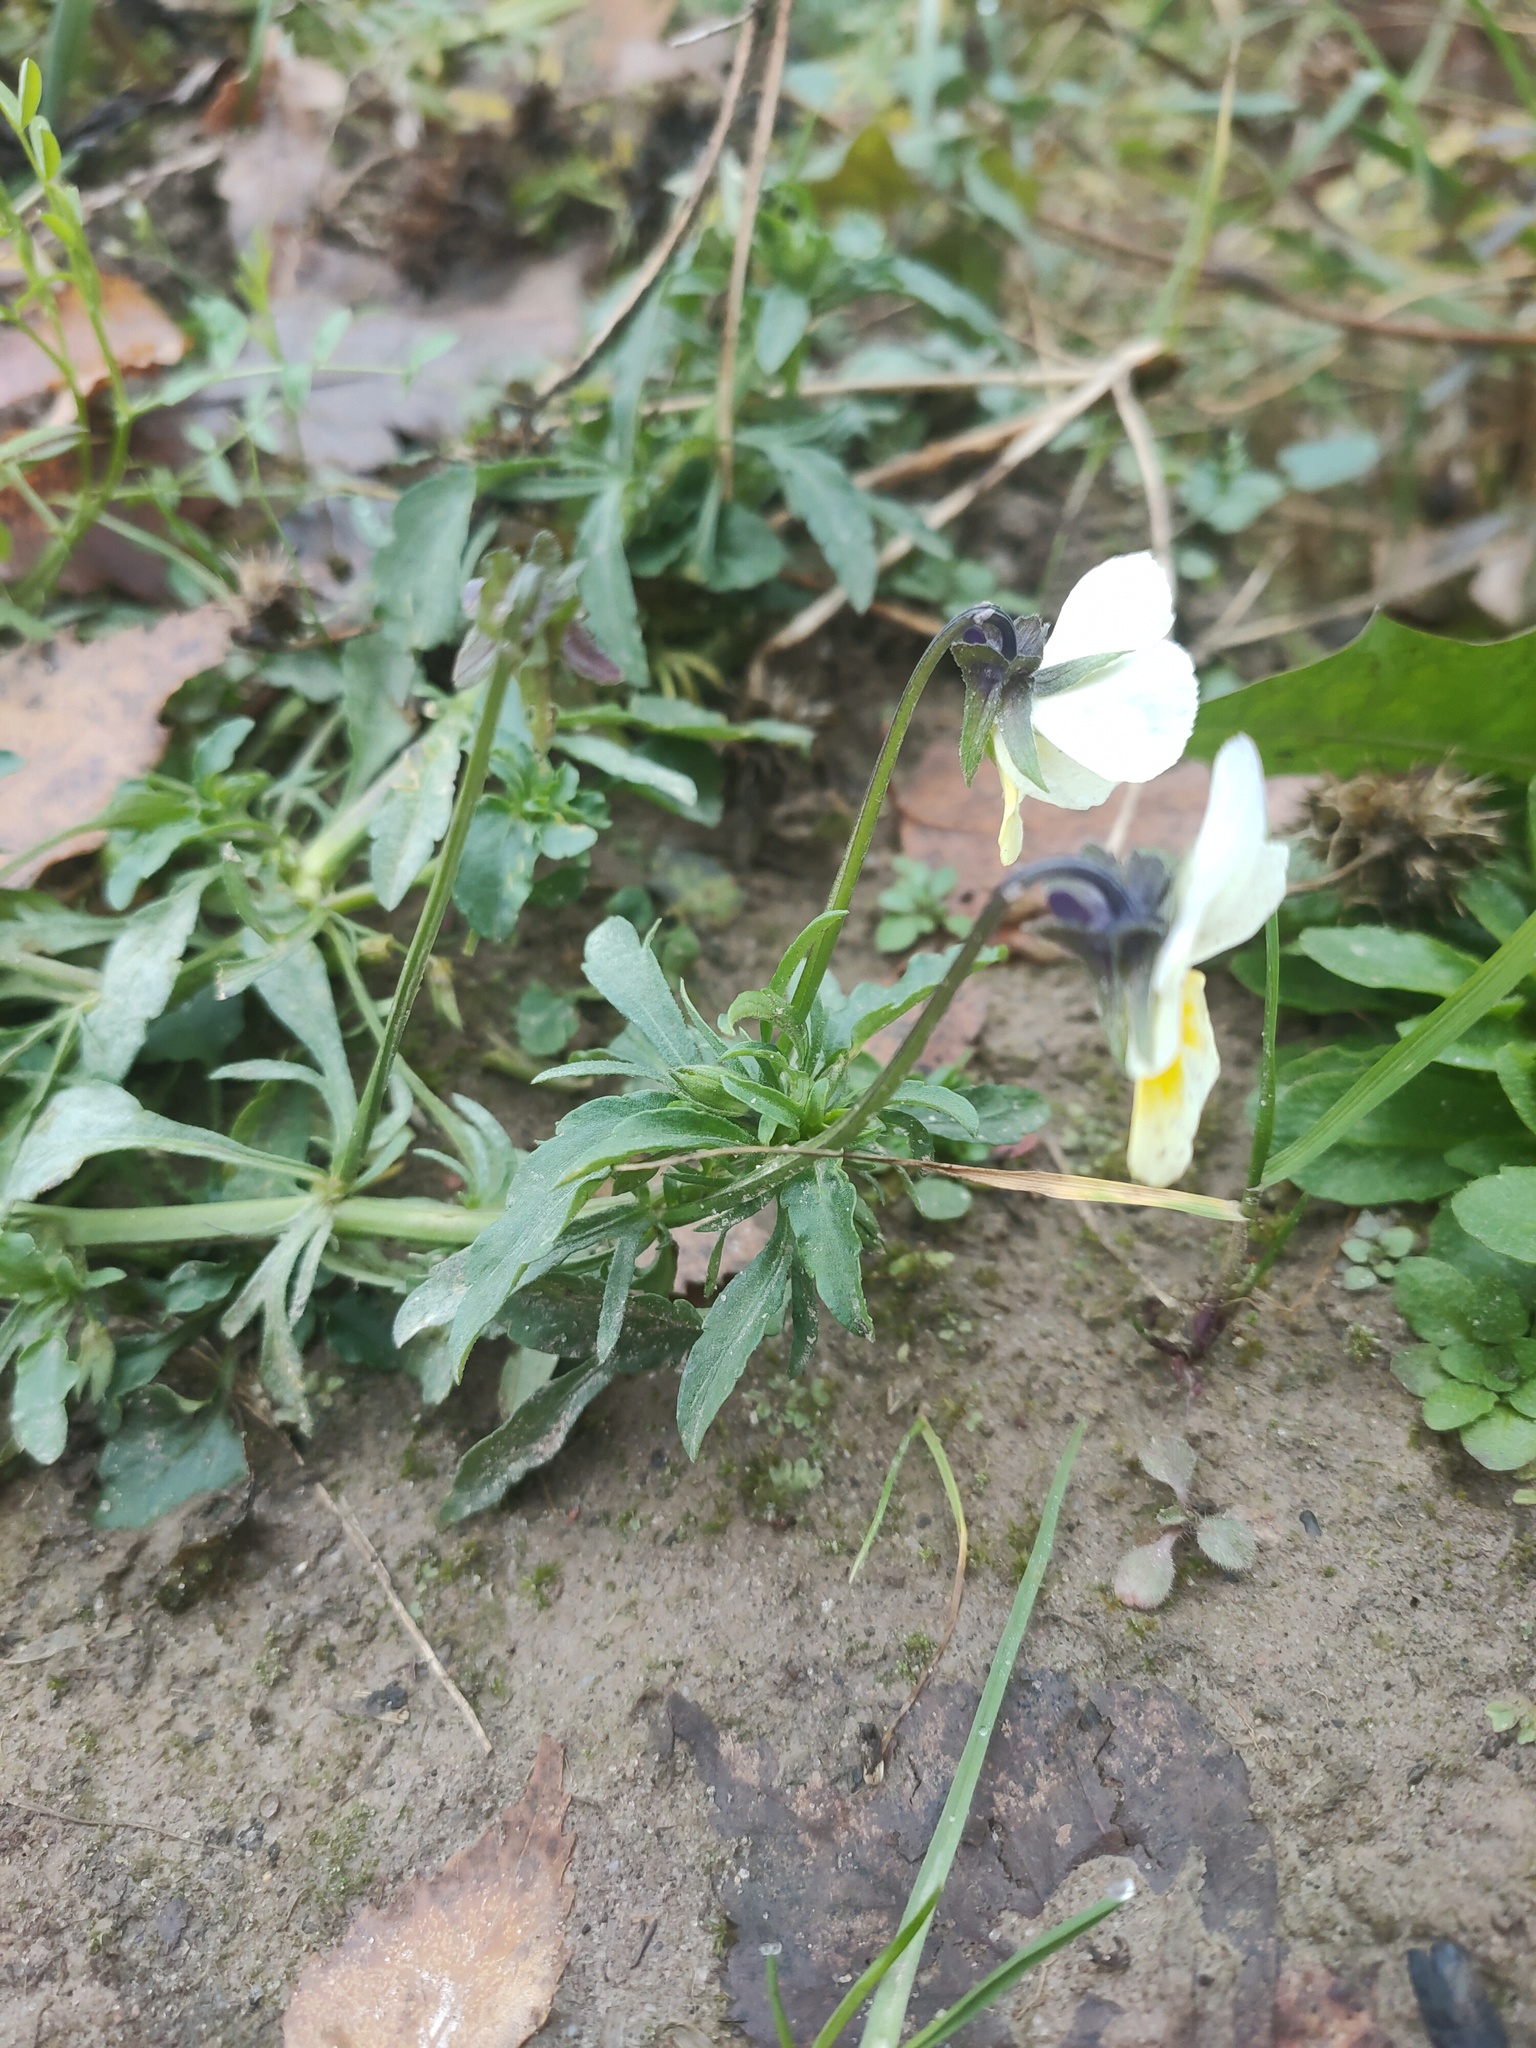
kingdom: Plantae
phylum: Tracheophyta
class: Magnoliopsida
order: Malpighiales
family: Violaceae
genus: Viola
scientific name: Viola arvensis
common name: Field pansy
